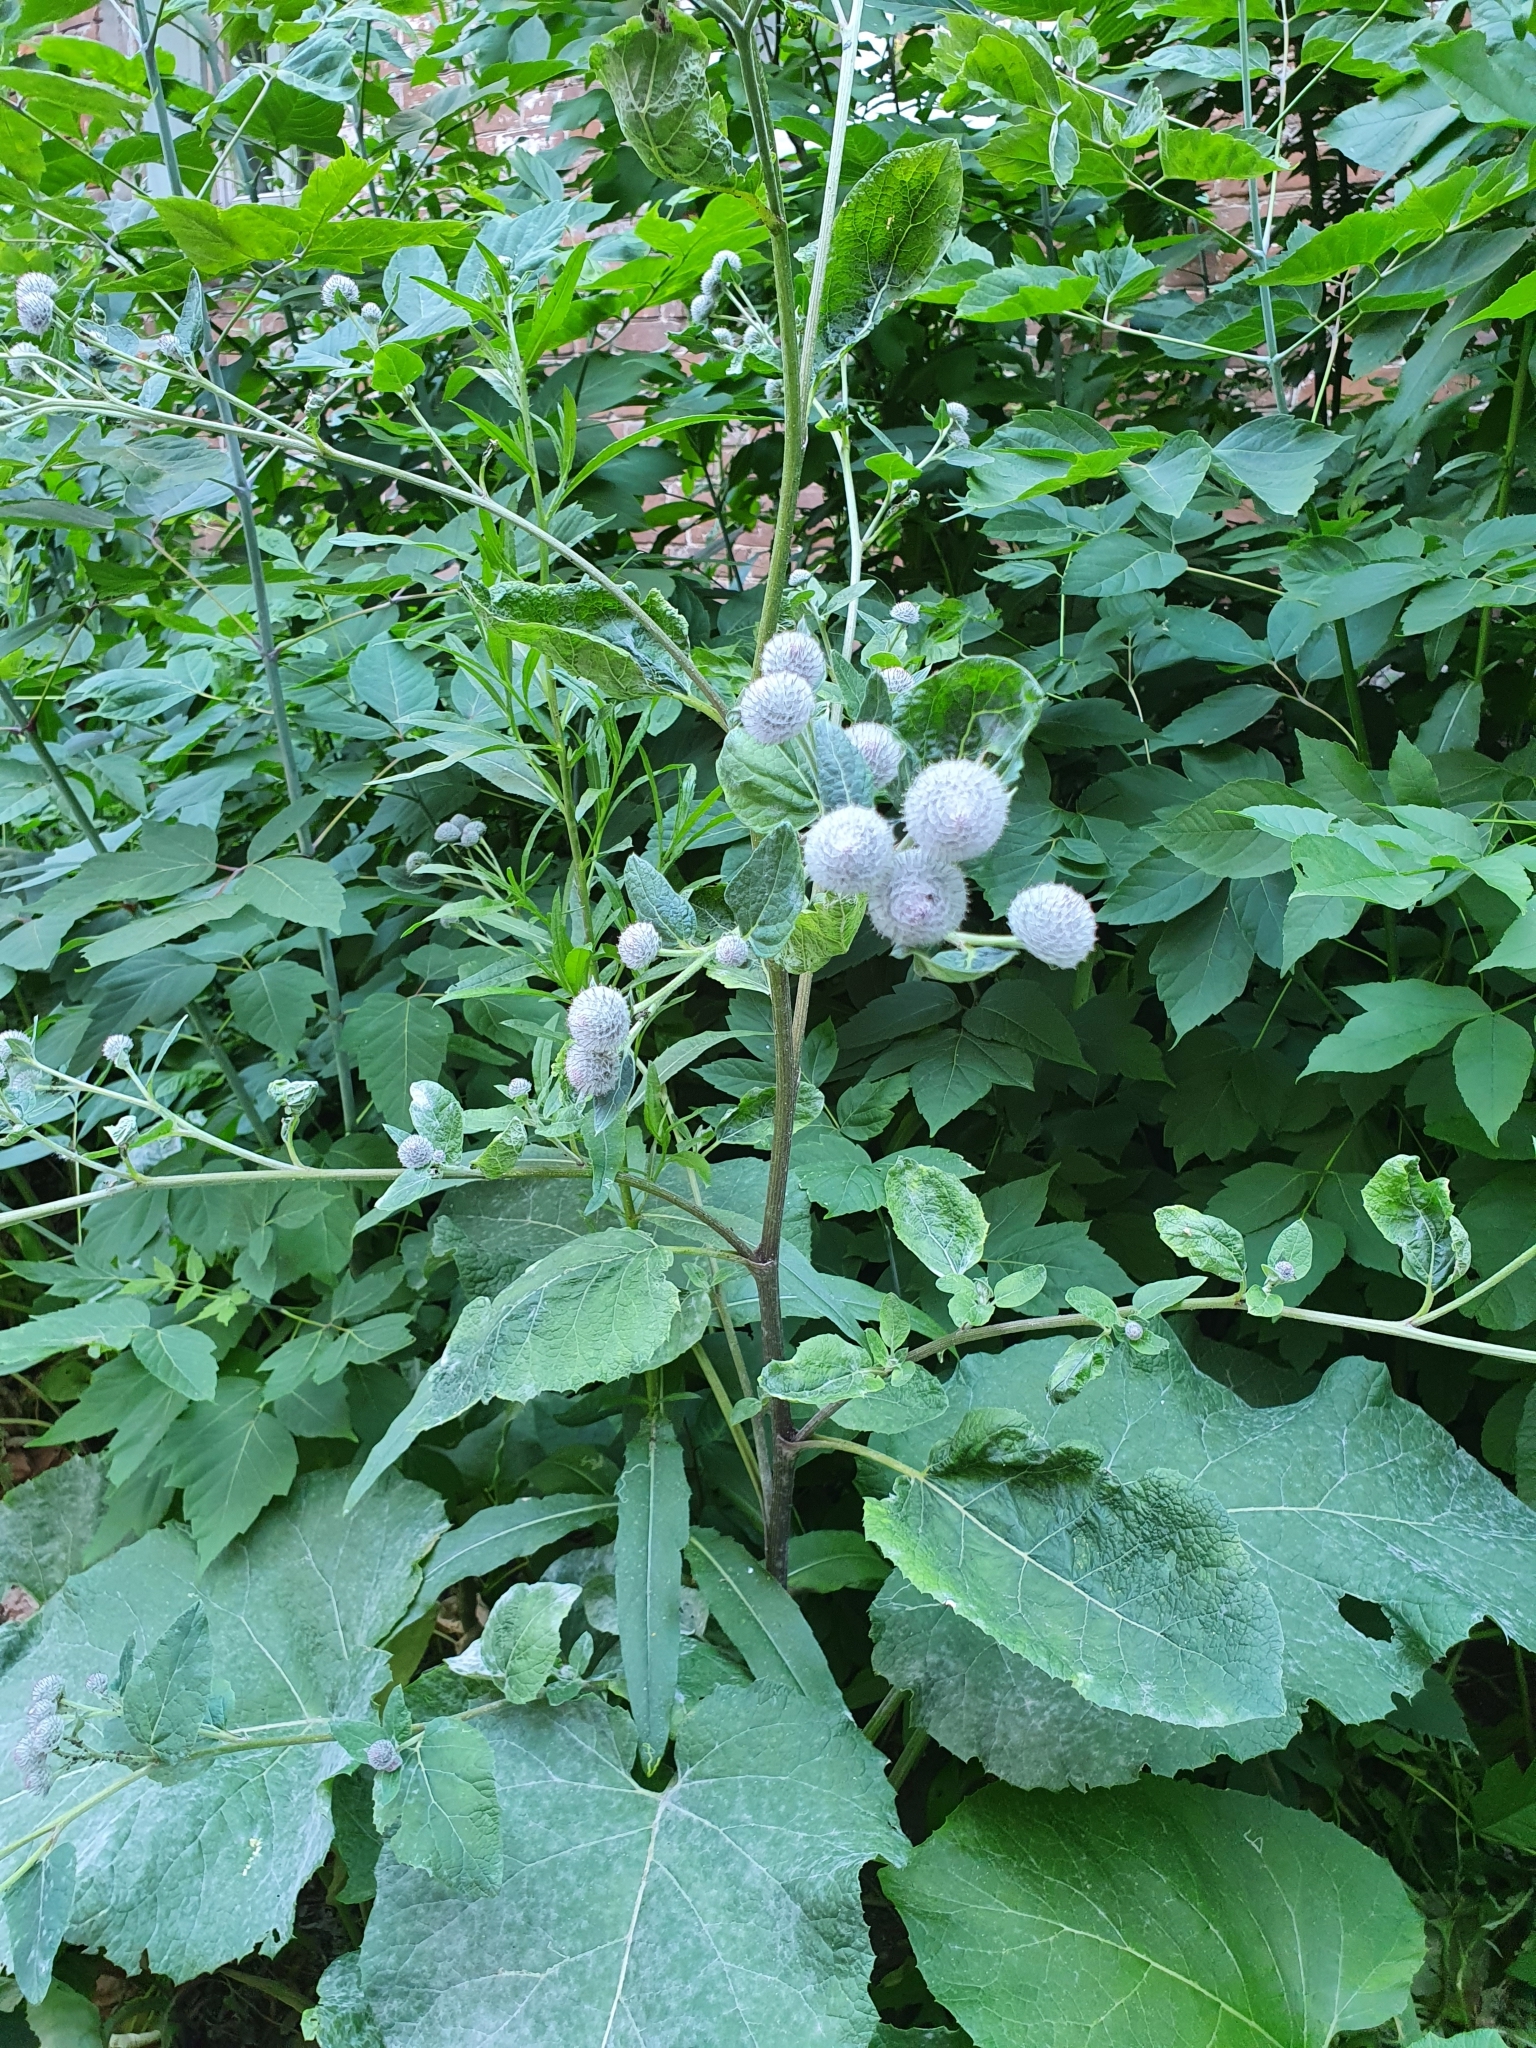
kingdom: Plantae
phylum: Tracheophyta
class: Magnoliopsida
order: Asterales
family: Asteraceae
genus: Arctium
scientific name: Arctium tomentosum
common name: Woolly burdock
